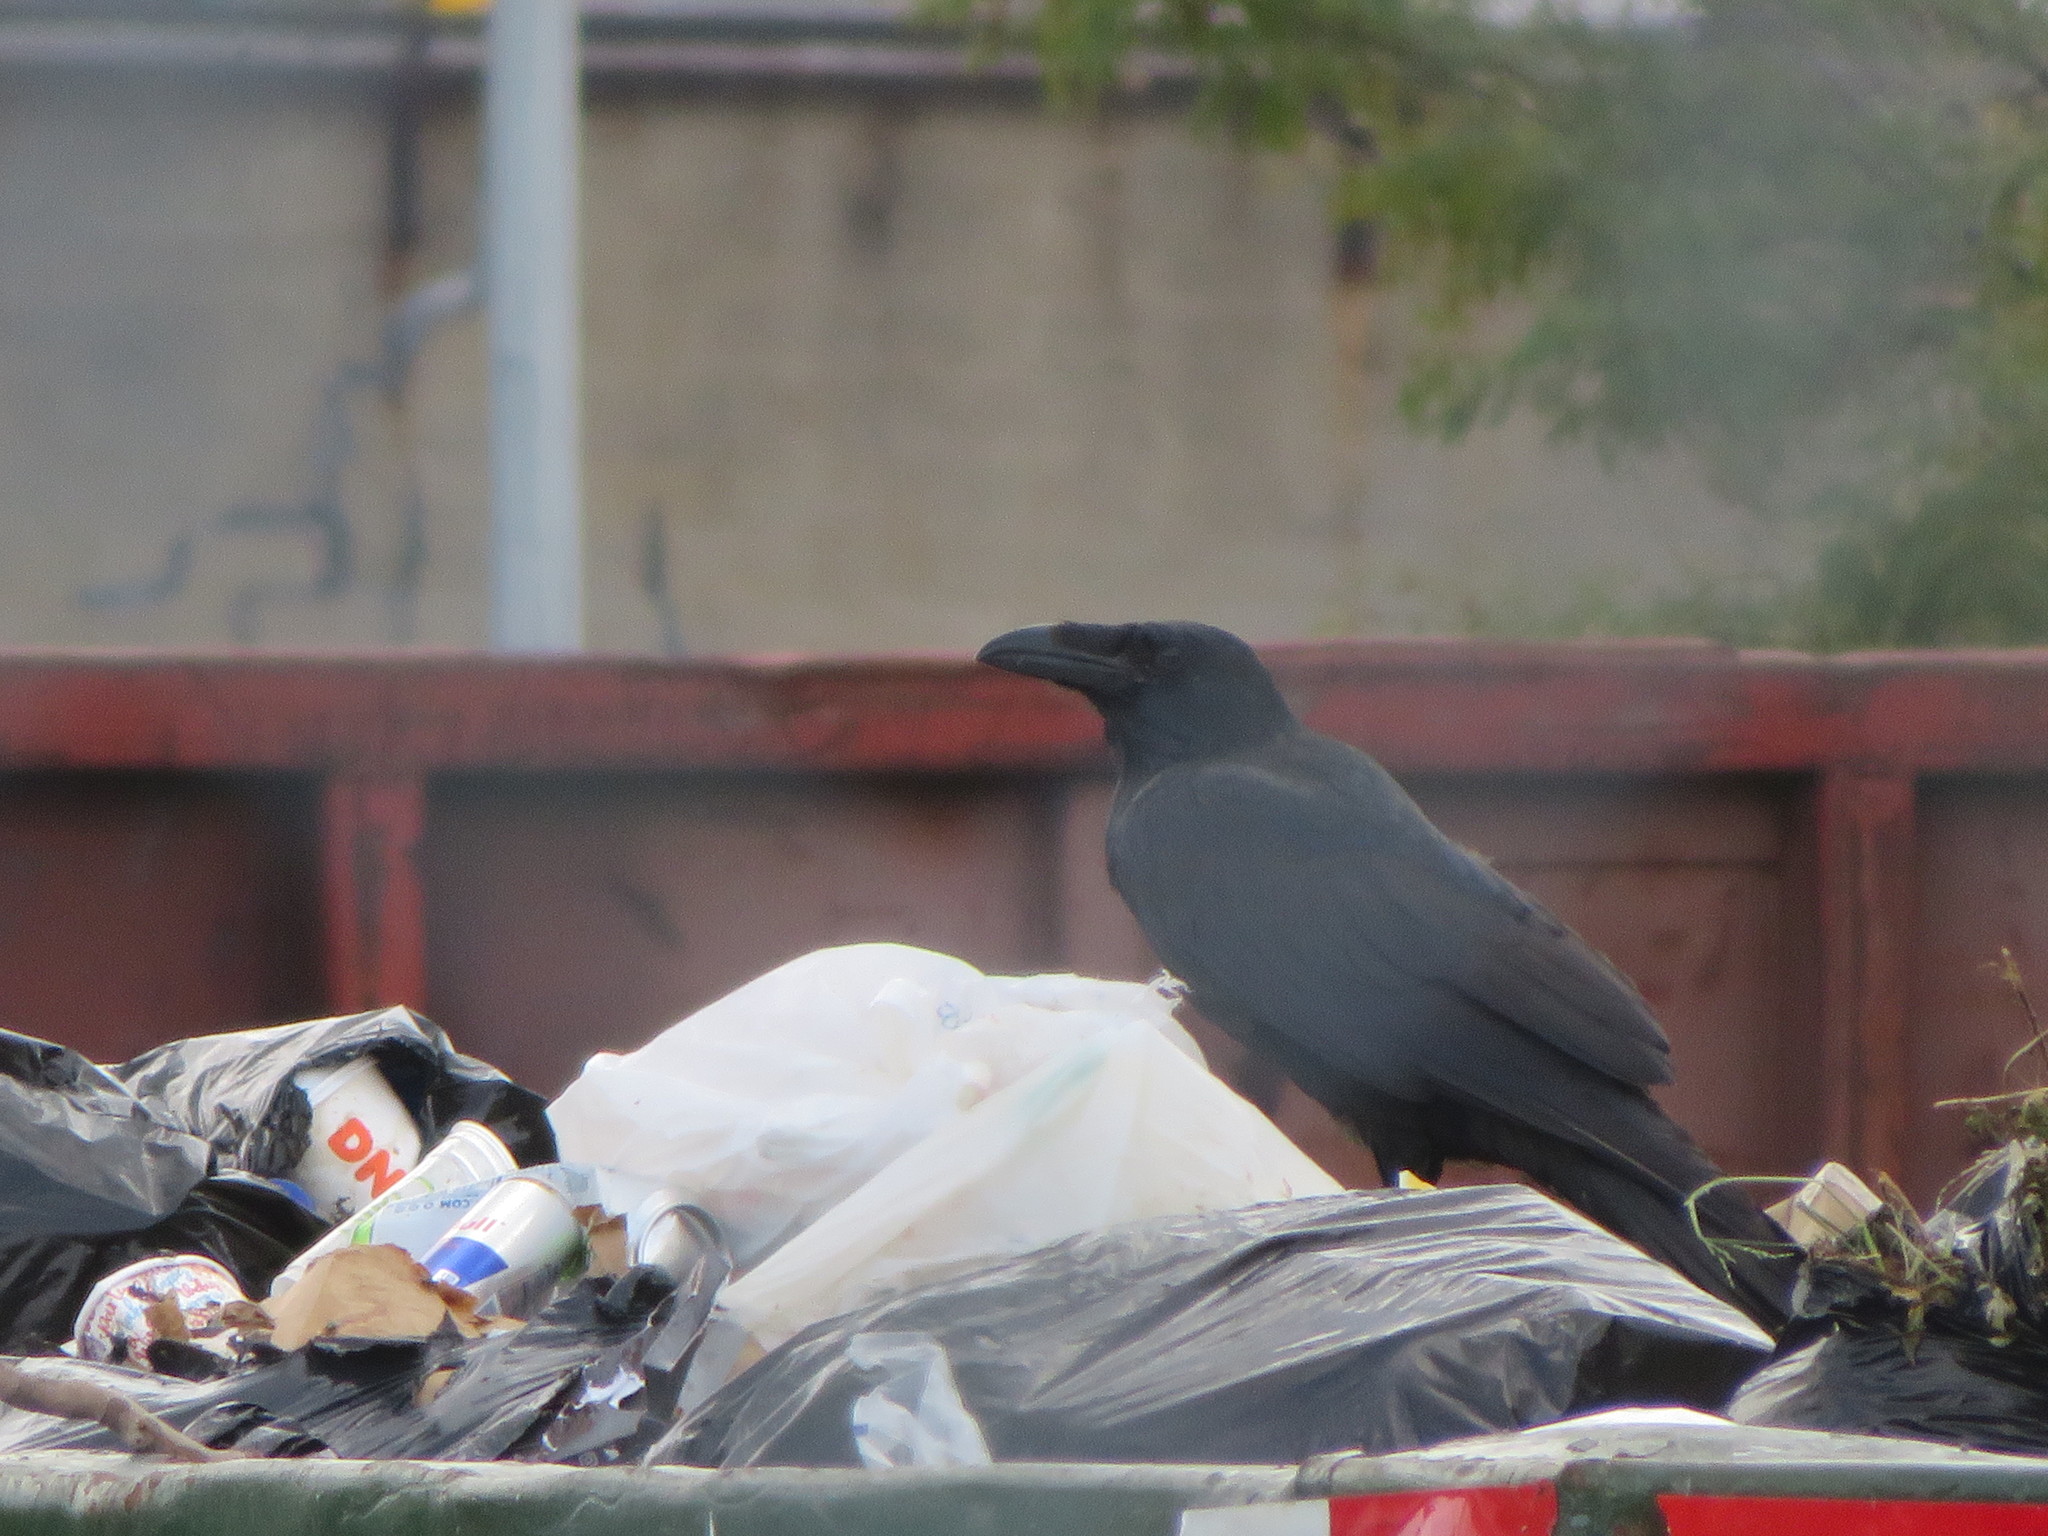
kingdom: Animalia
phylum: Chordata
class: Aves
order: Passeriformes
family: Corvidae
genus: Corvus
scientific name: Corvus corax
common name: Common raven
